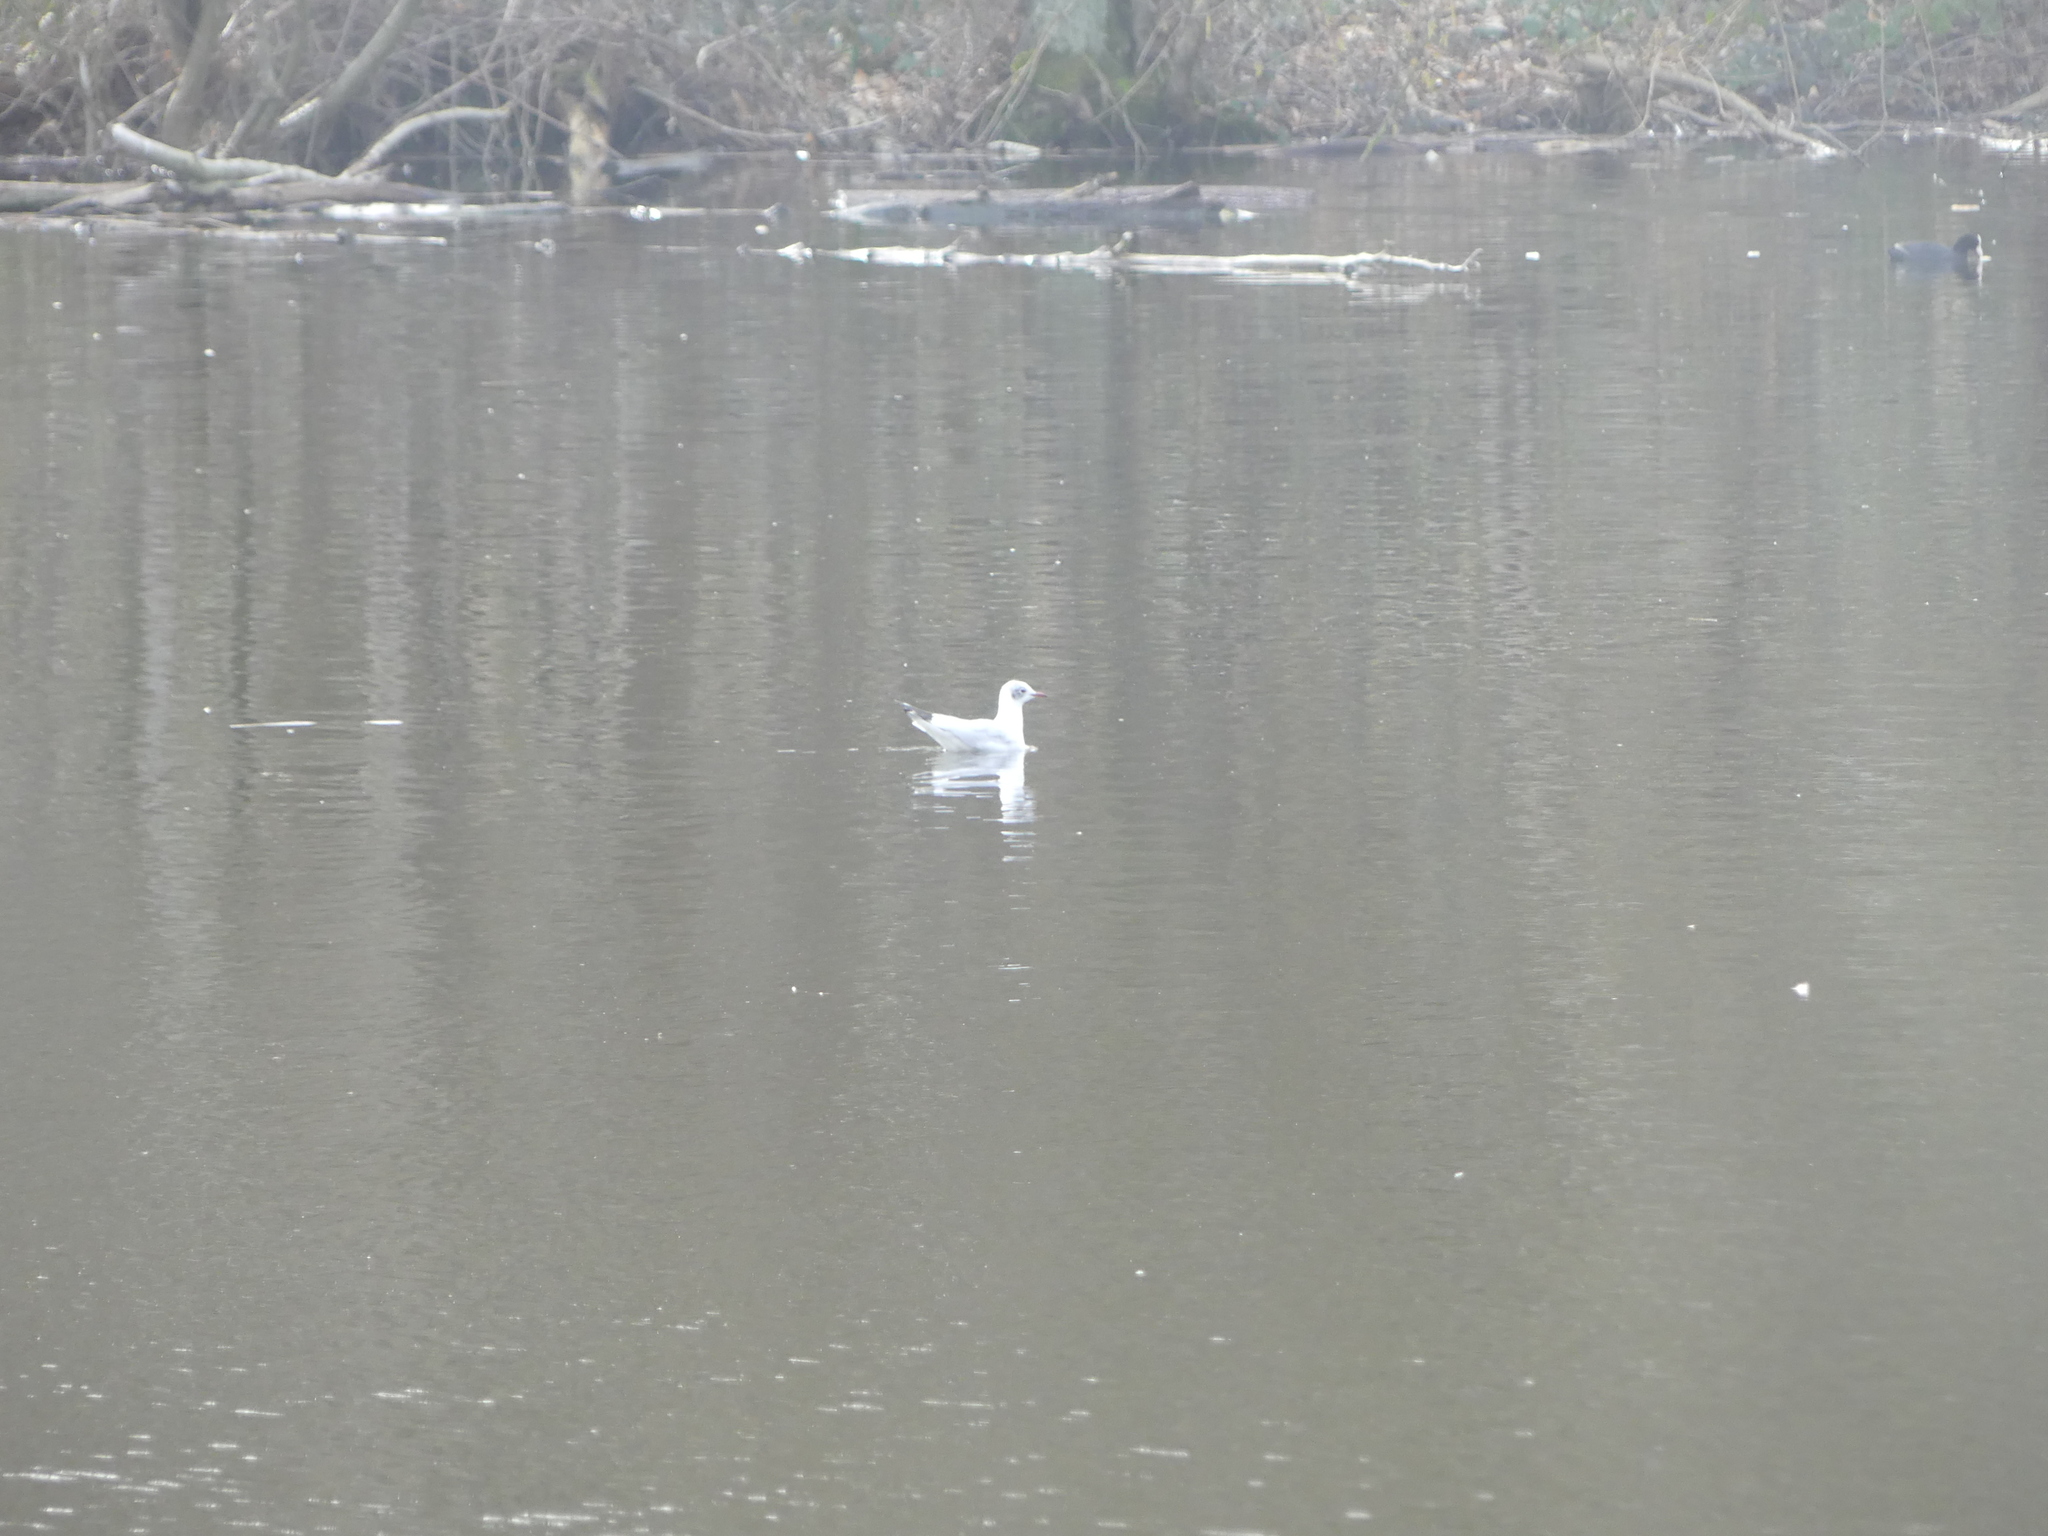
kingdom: Animalia
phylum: Chordata
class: Aves
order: Charadriiformes
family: Laridae
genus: Chroicocephalus
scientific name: Chroicocephalus ridibundus
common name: Black-headed gull
